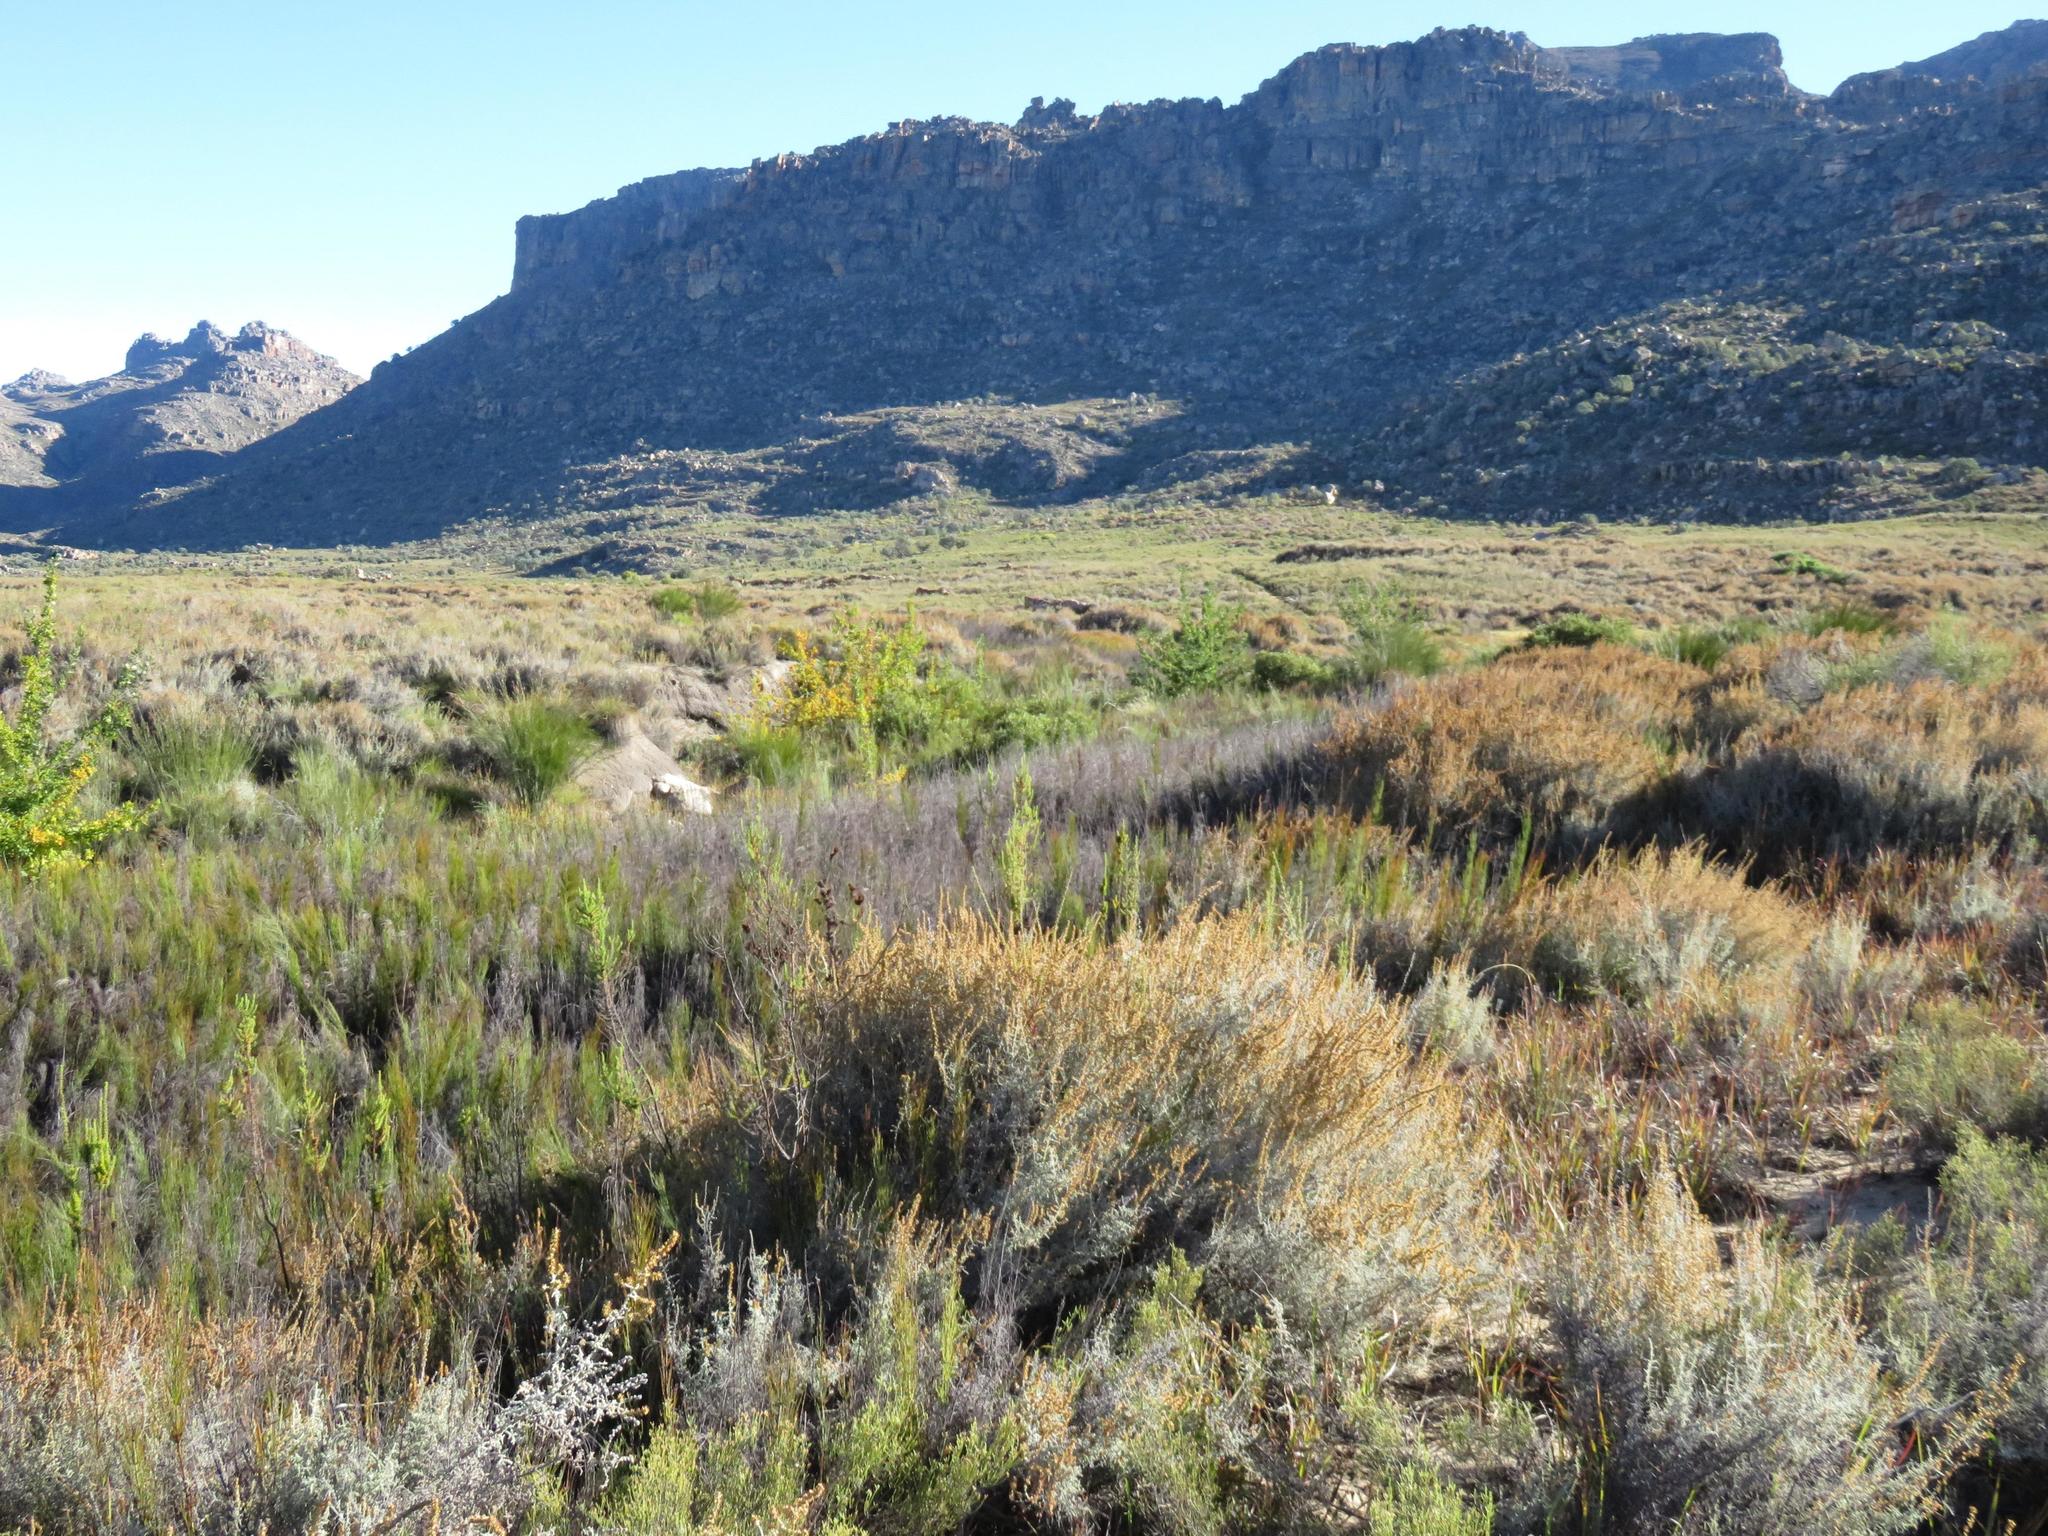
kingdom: Plantae
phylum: Tracheophyta
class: Magnoliopsida
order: Asterales
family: Asteraceae
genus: Seriphium
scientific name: Seriphium plumosum
